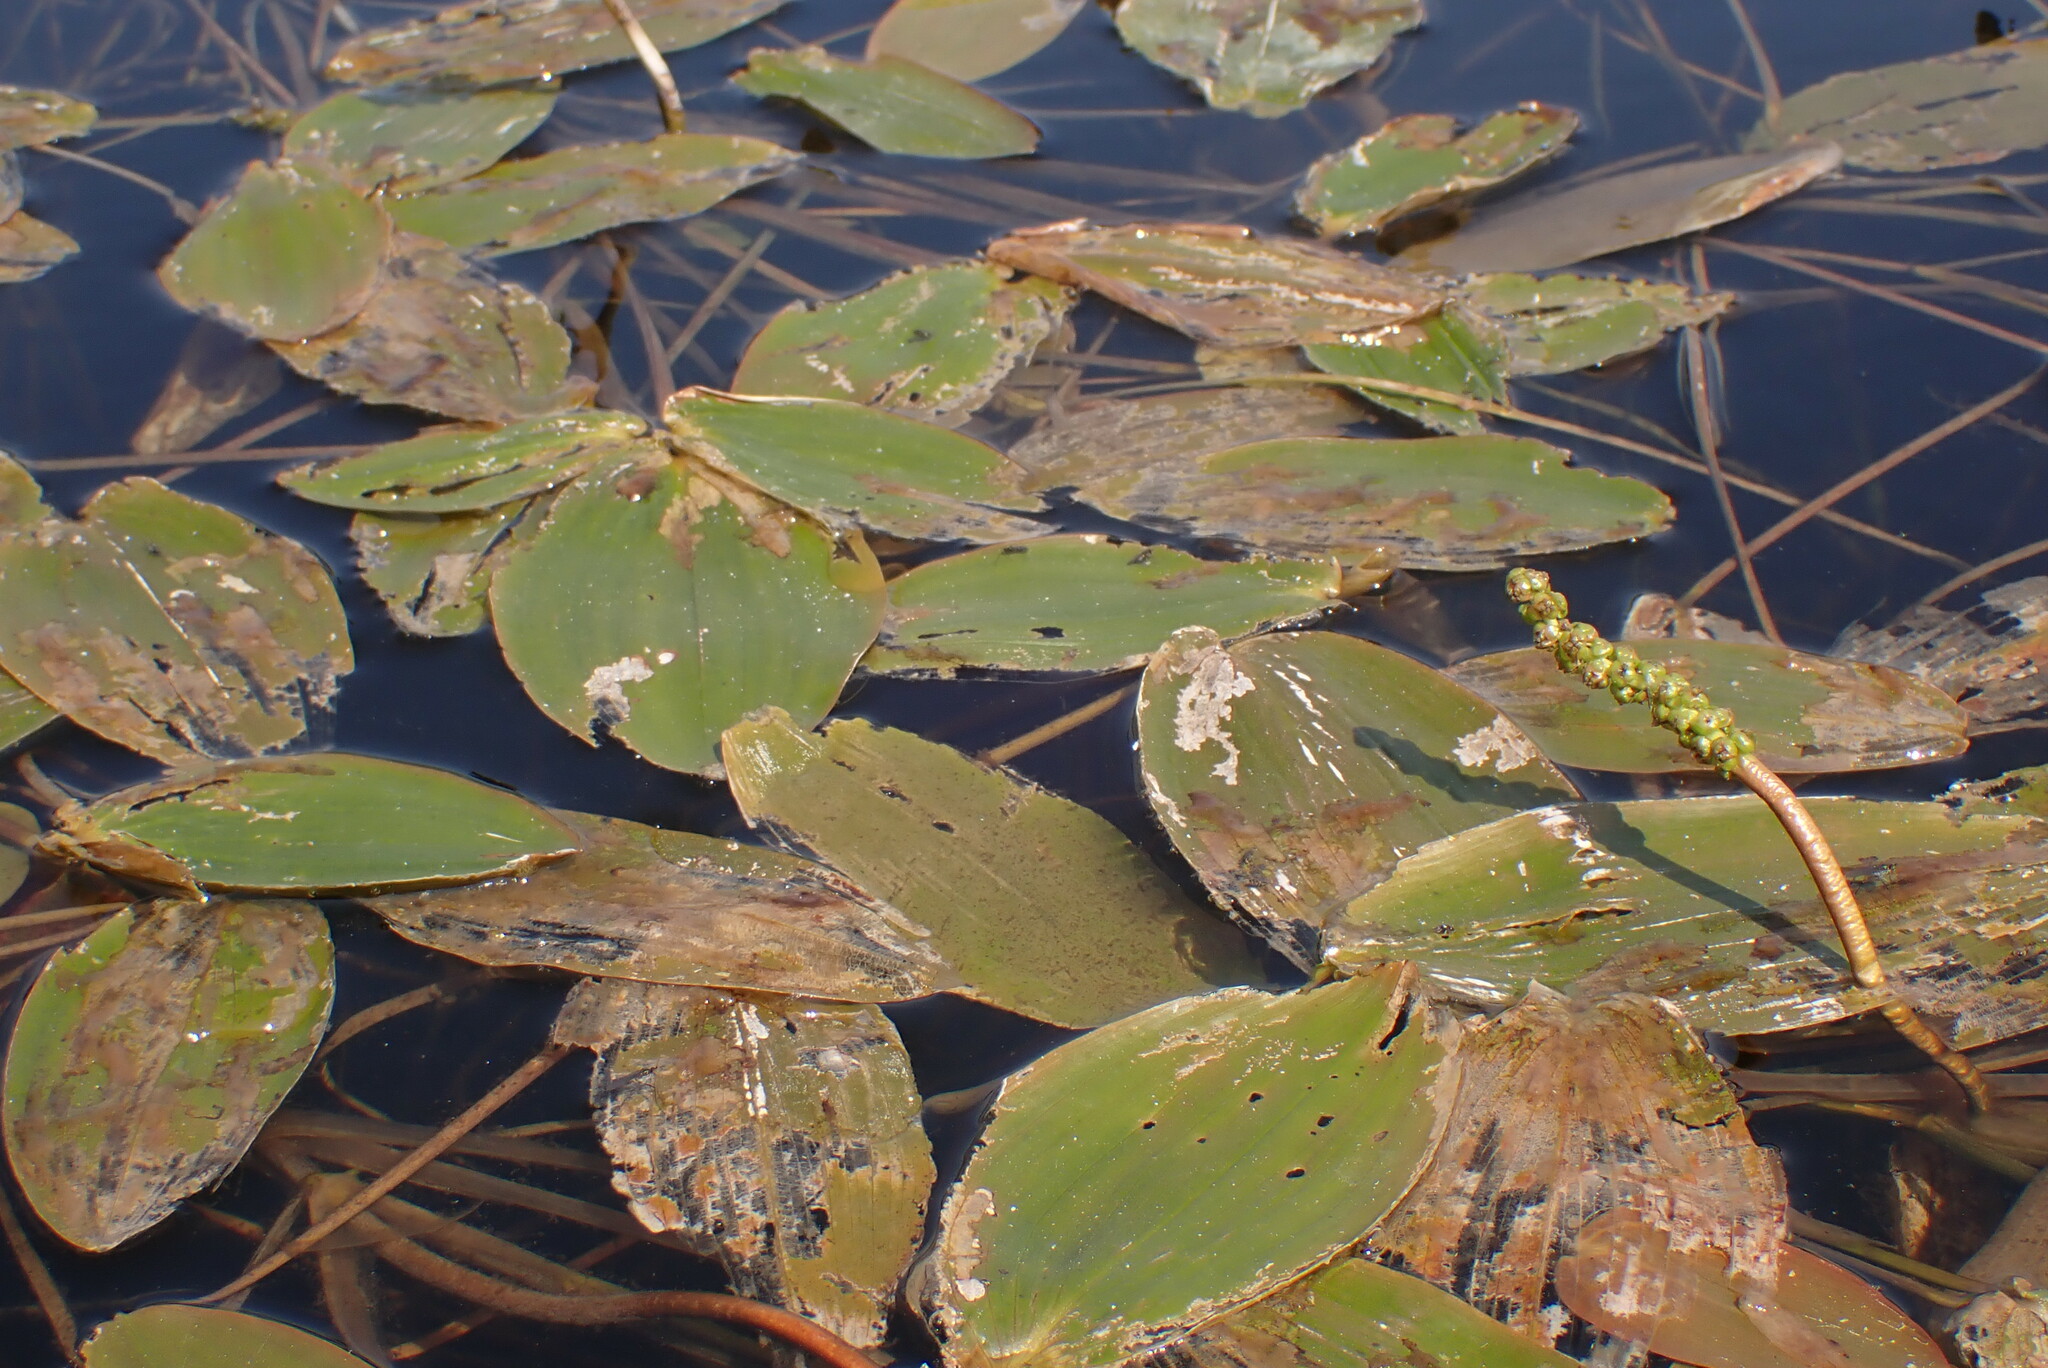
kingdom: Plantae
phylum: Tracheophyta
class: Liliopsida
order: Alismatales
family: Potamogetonaceae
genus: Potamogeton
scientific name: Potamogeton natans
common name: Broad-leaved pondweed
